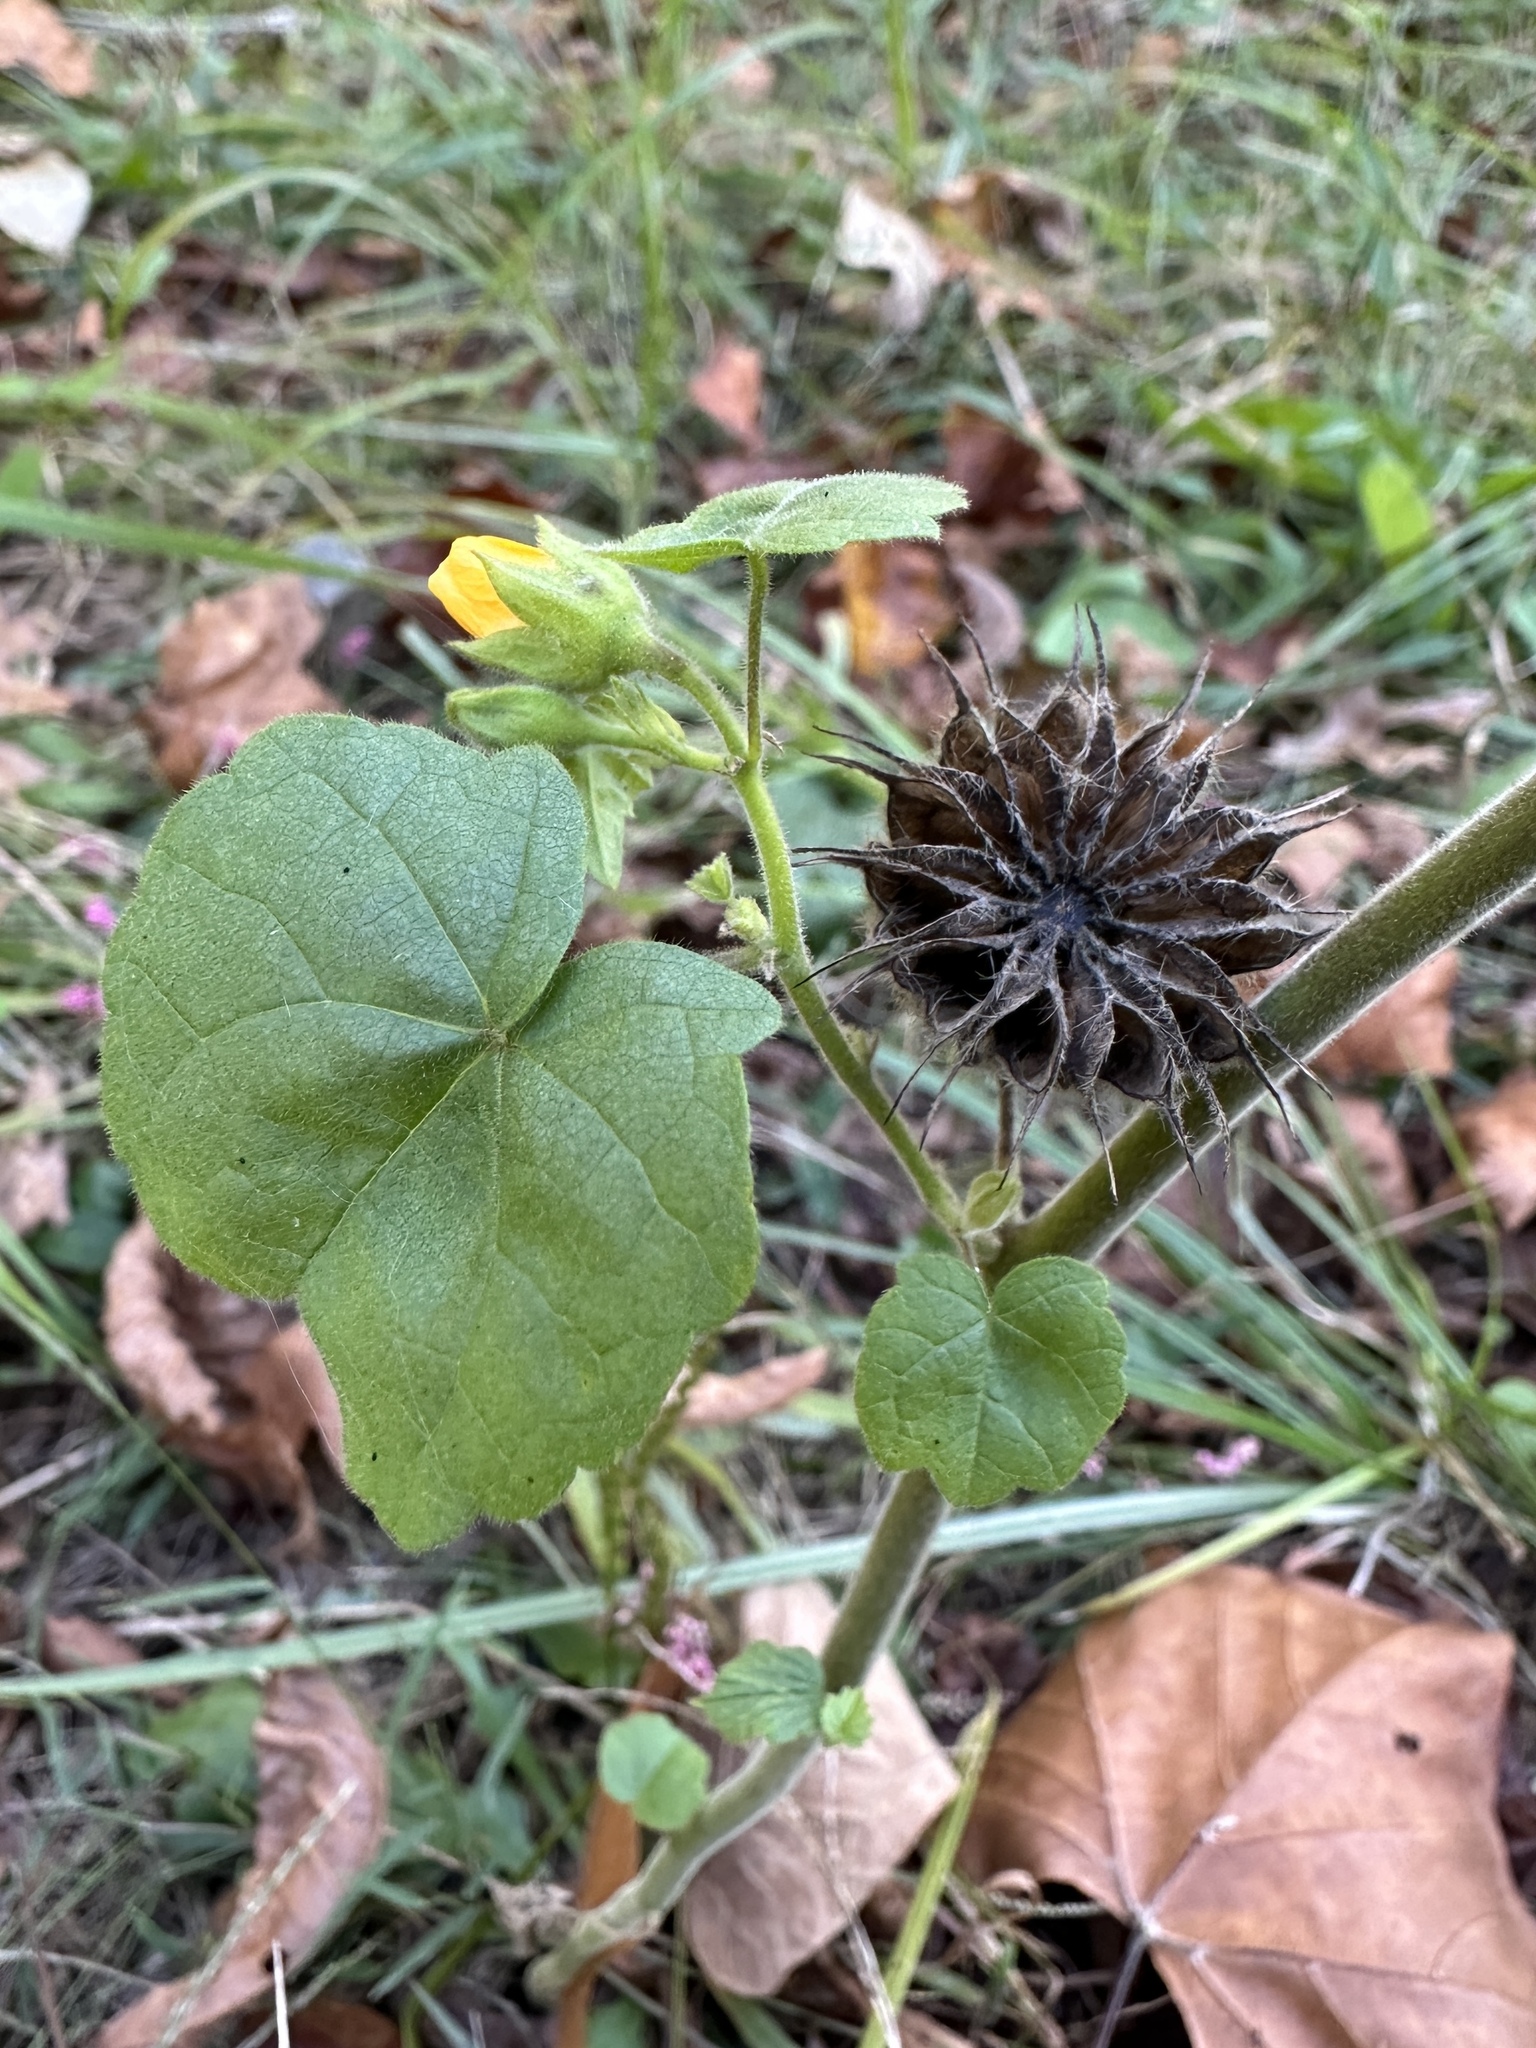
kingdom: Plantae
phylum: Tracheophyta
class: Magnoliopsida
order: Malvales
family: Malvaceae
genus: Abutilon
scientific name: Abutilon theophrasti
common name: Velvetleaf
